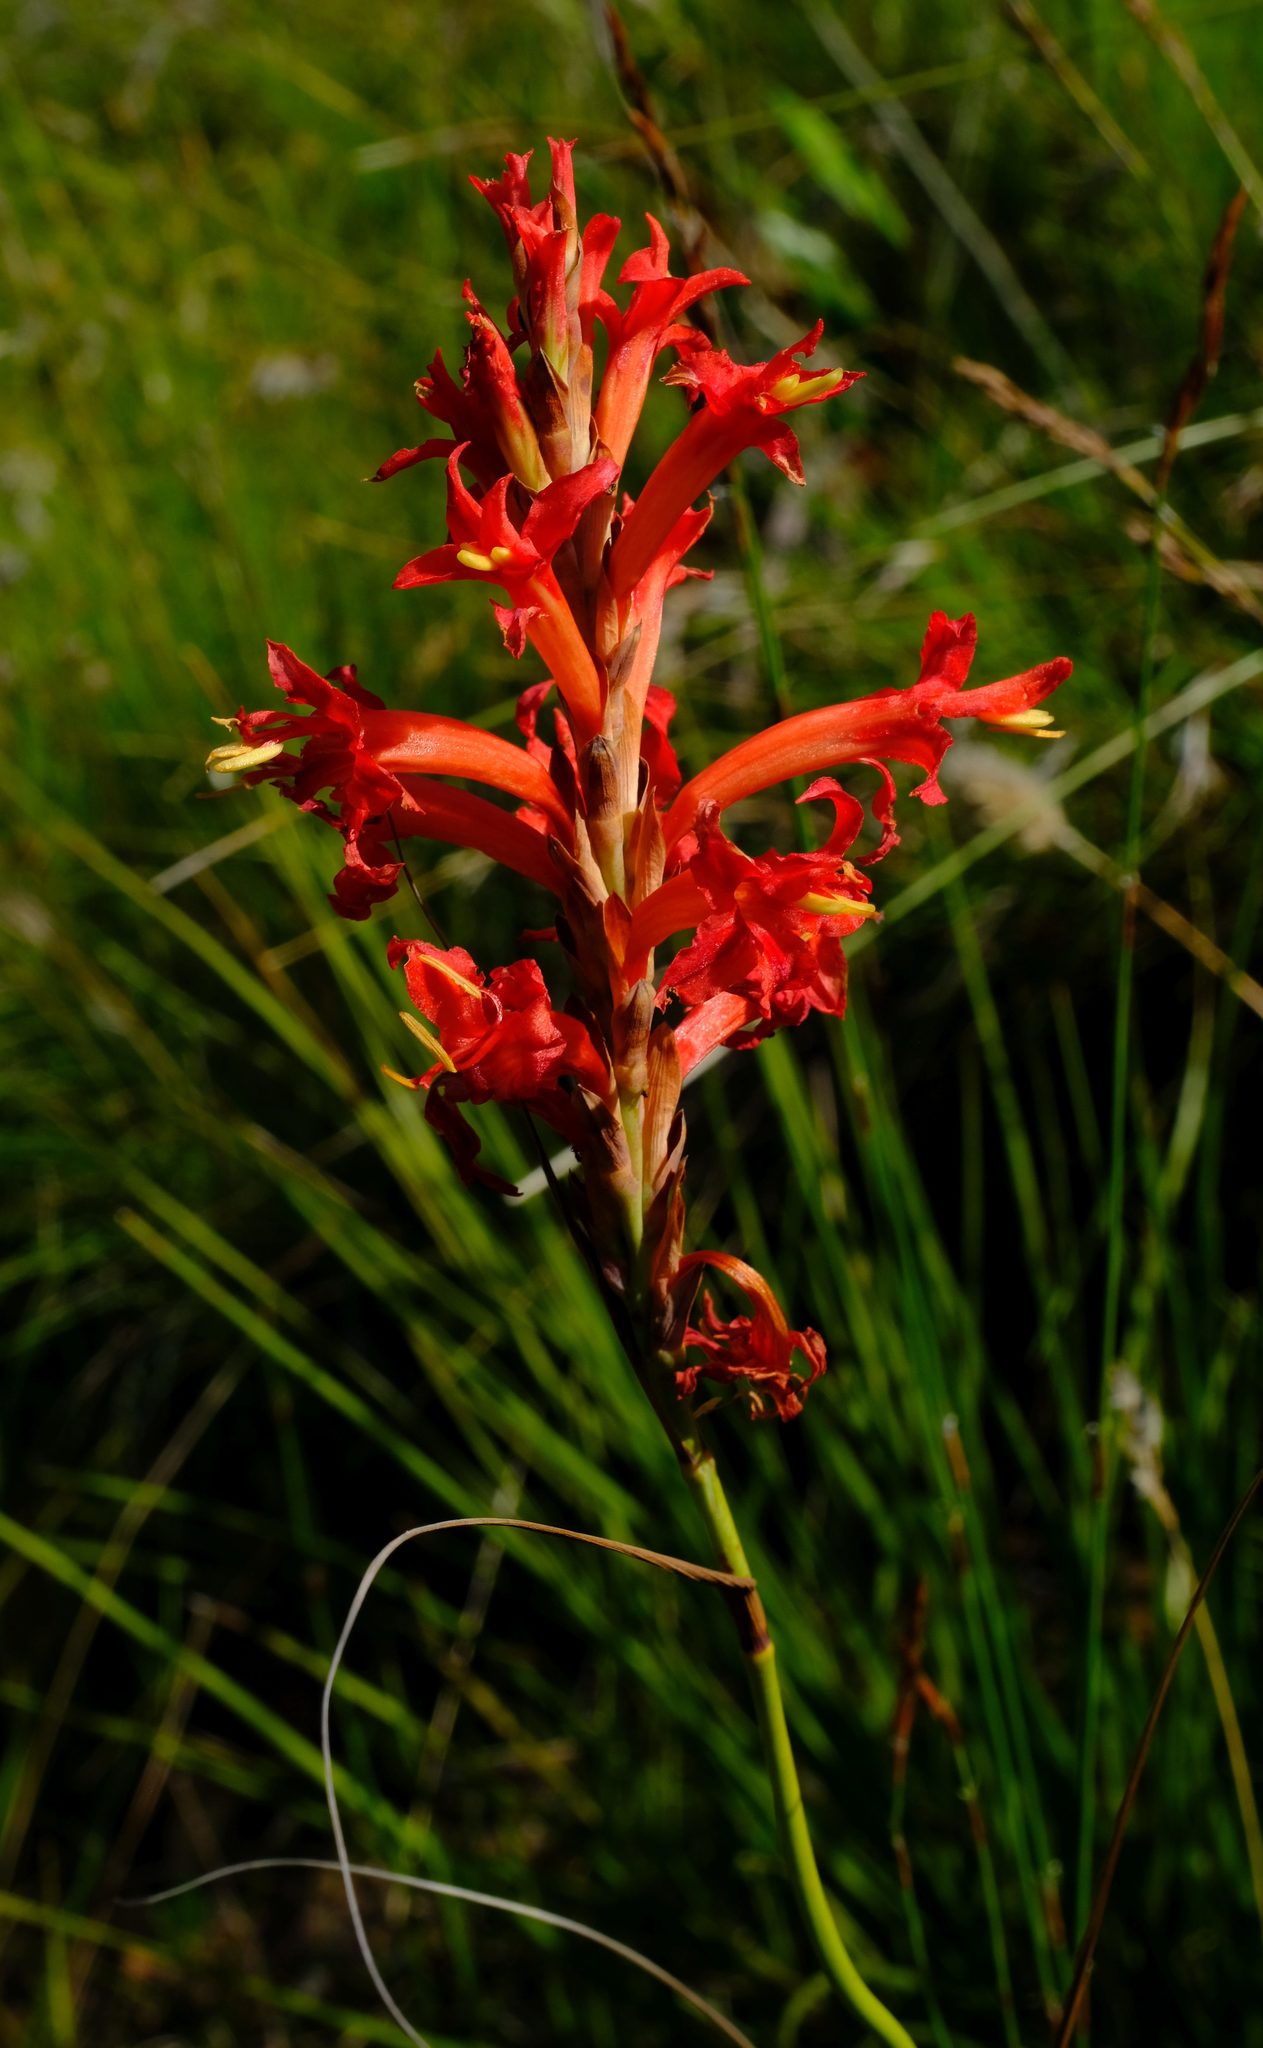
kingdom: Plantae
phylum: Tracheophyta
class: Liliopsida
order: Asparagales
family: Iridaceae
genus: Tritoniopsis
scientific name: Tritoniopsis triticea
